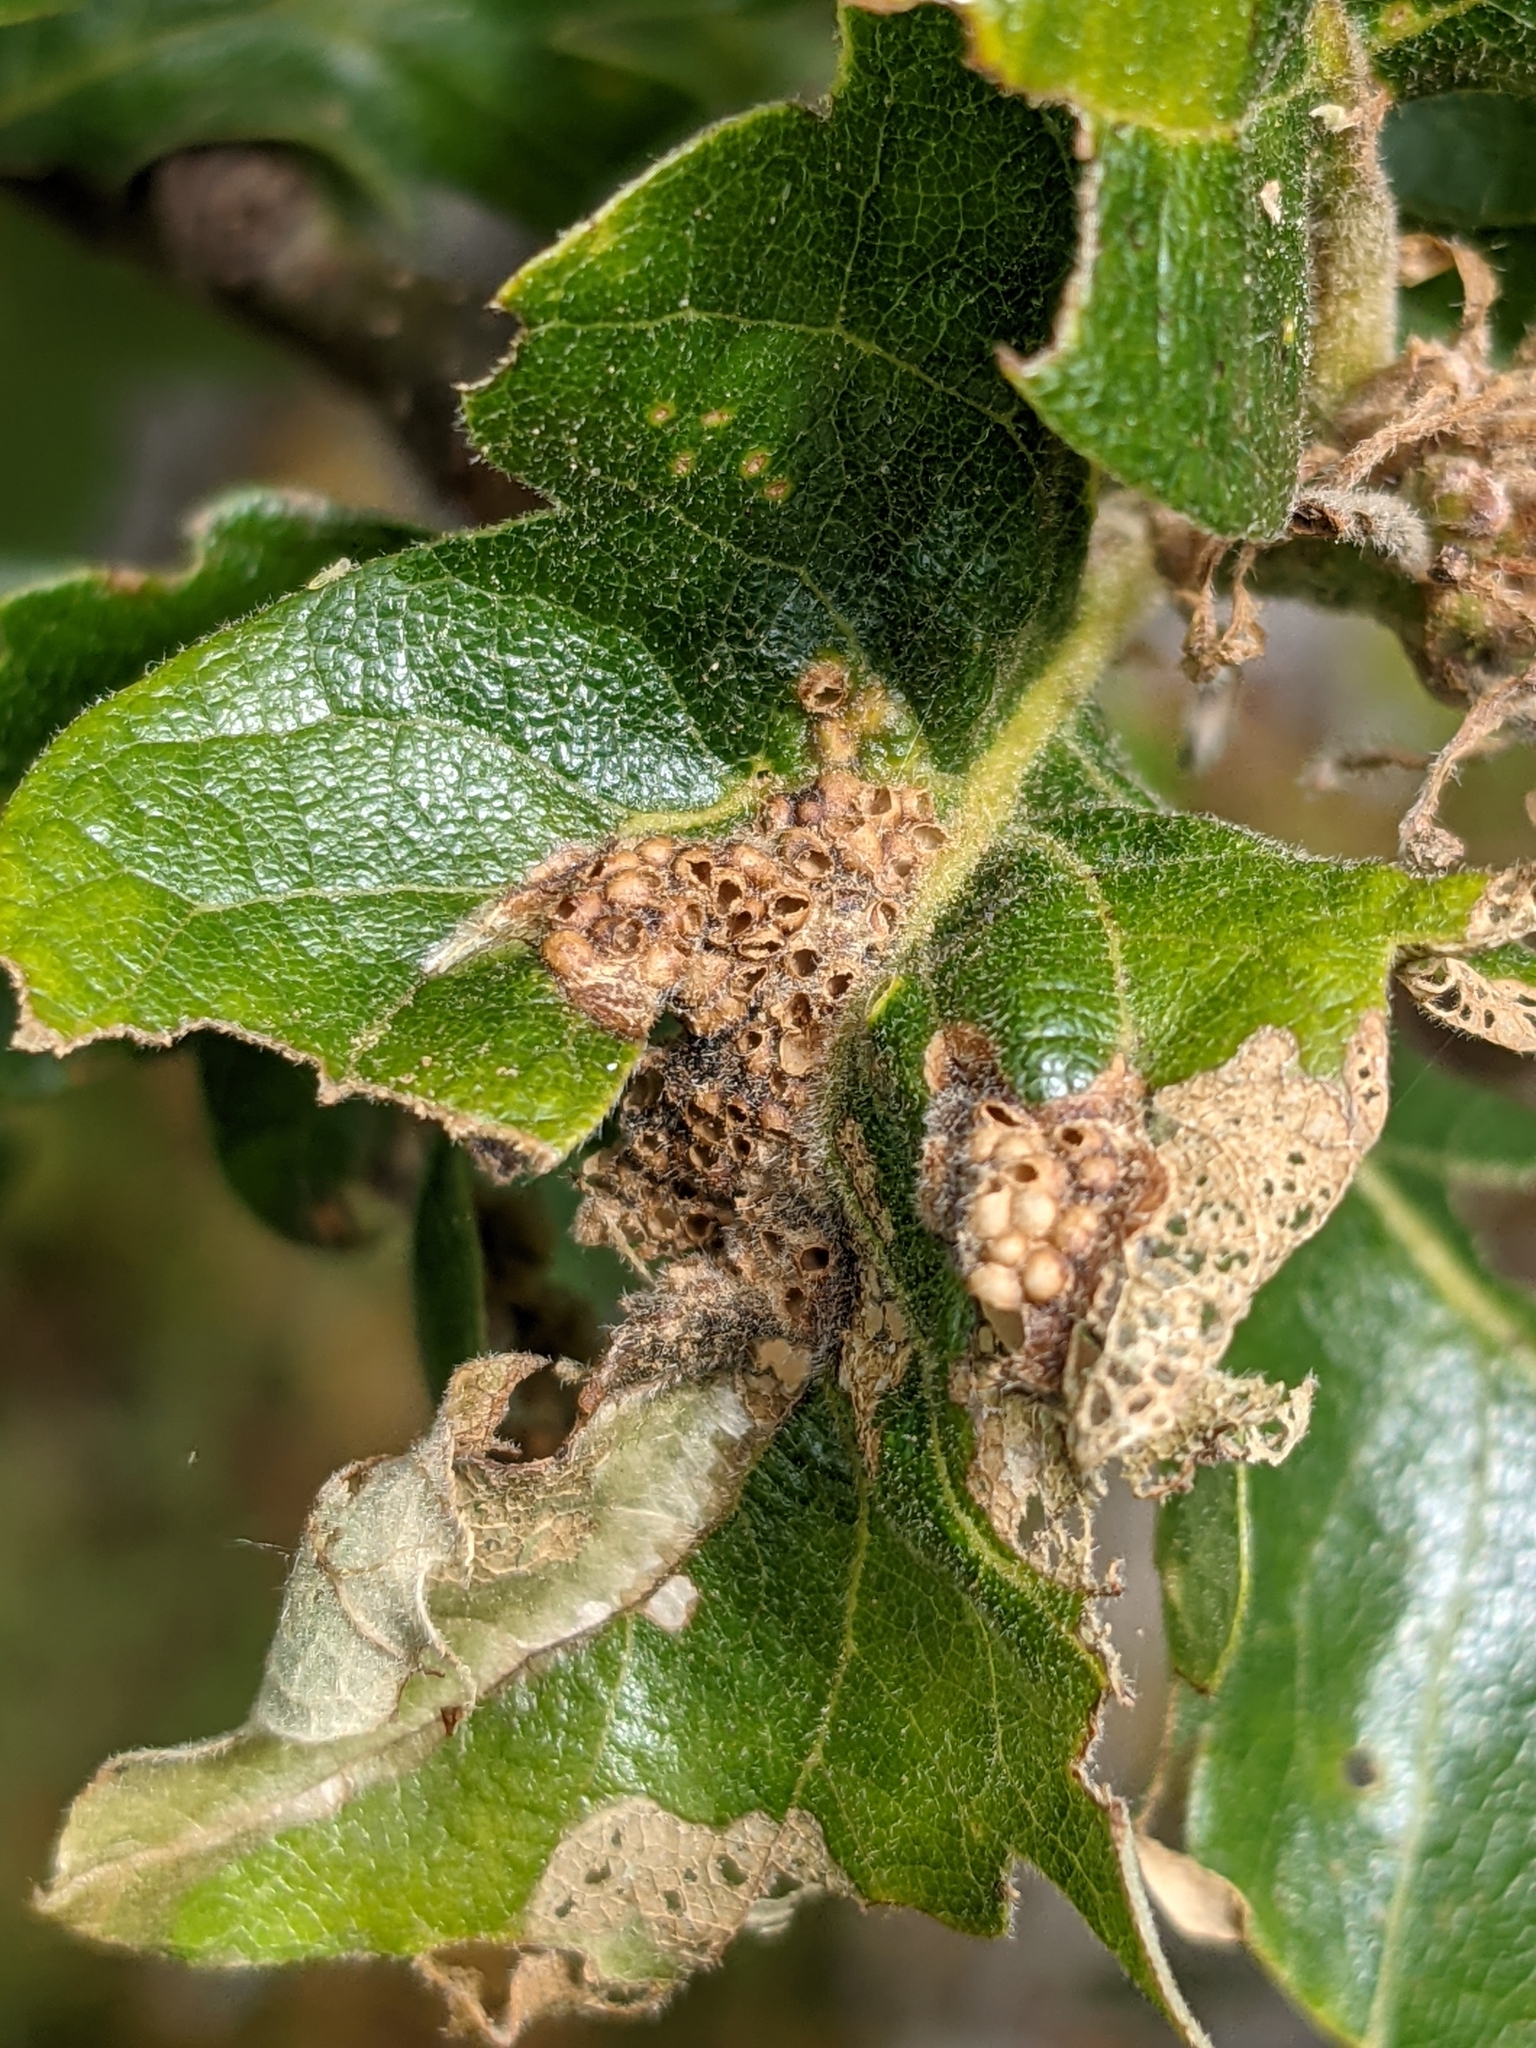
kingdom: Animalia
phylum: Arthropoda
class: Insecta
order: Hymenoptera
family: Cynipidae
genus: Neuroterus
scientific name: Neuroterus saltarius
